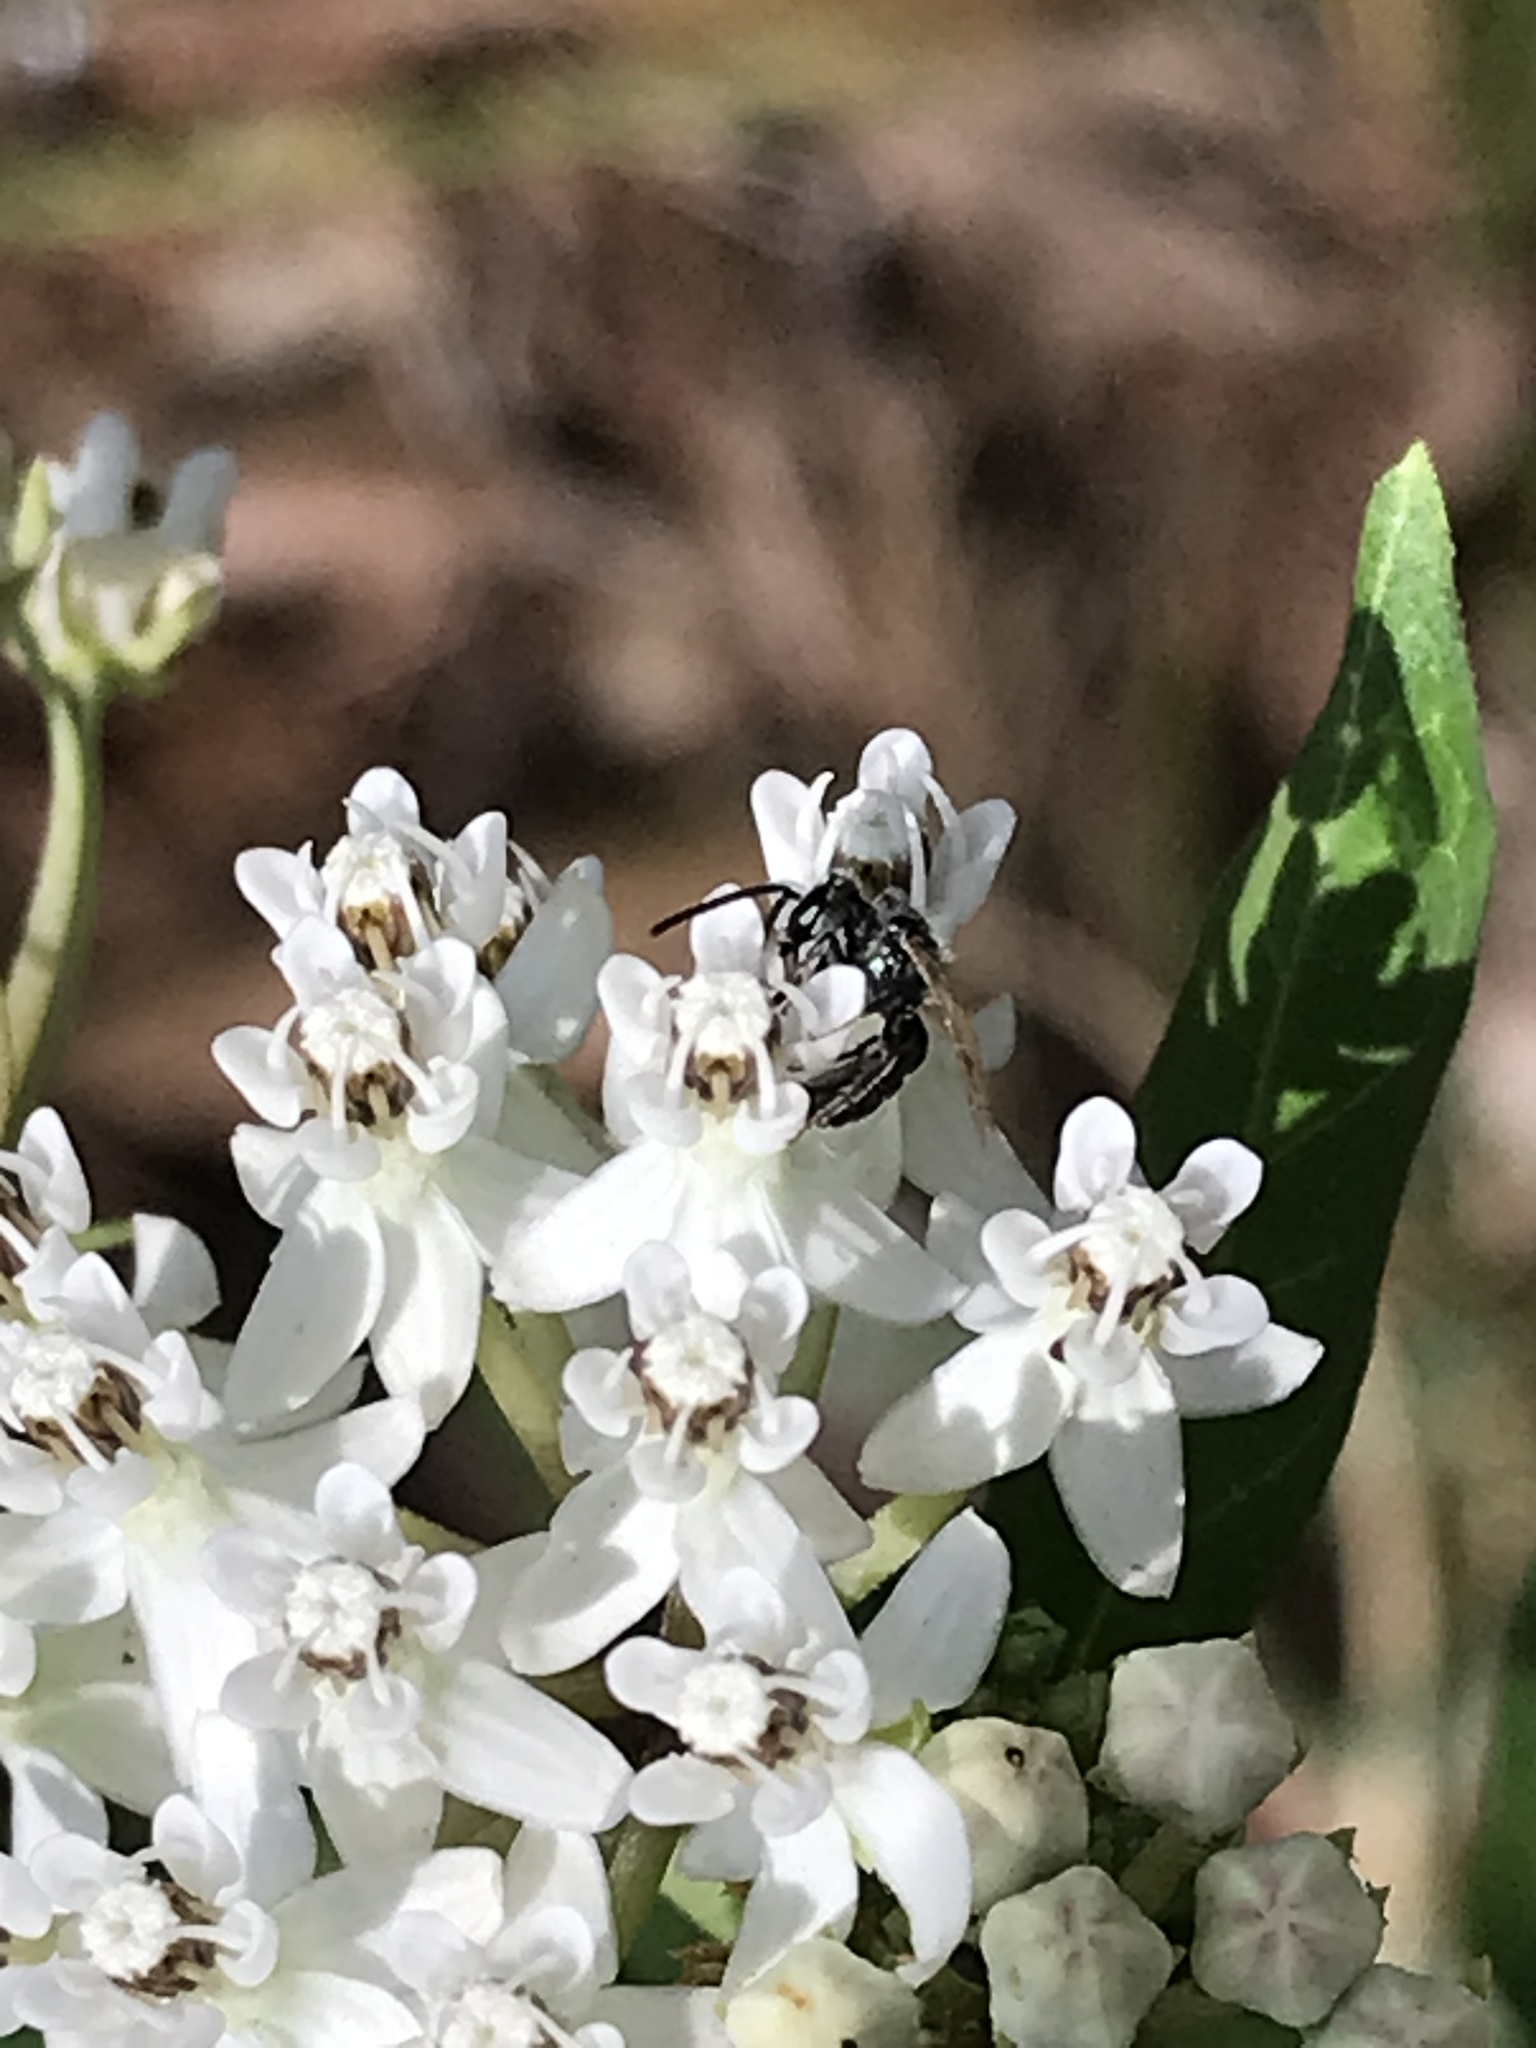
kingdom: Animalia
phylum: Arthropoda
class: Insecta
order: Hymenoptera
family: Halictidae
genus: Dialictus
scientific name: Dialictus
